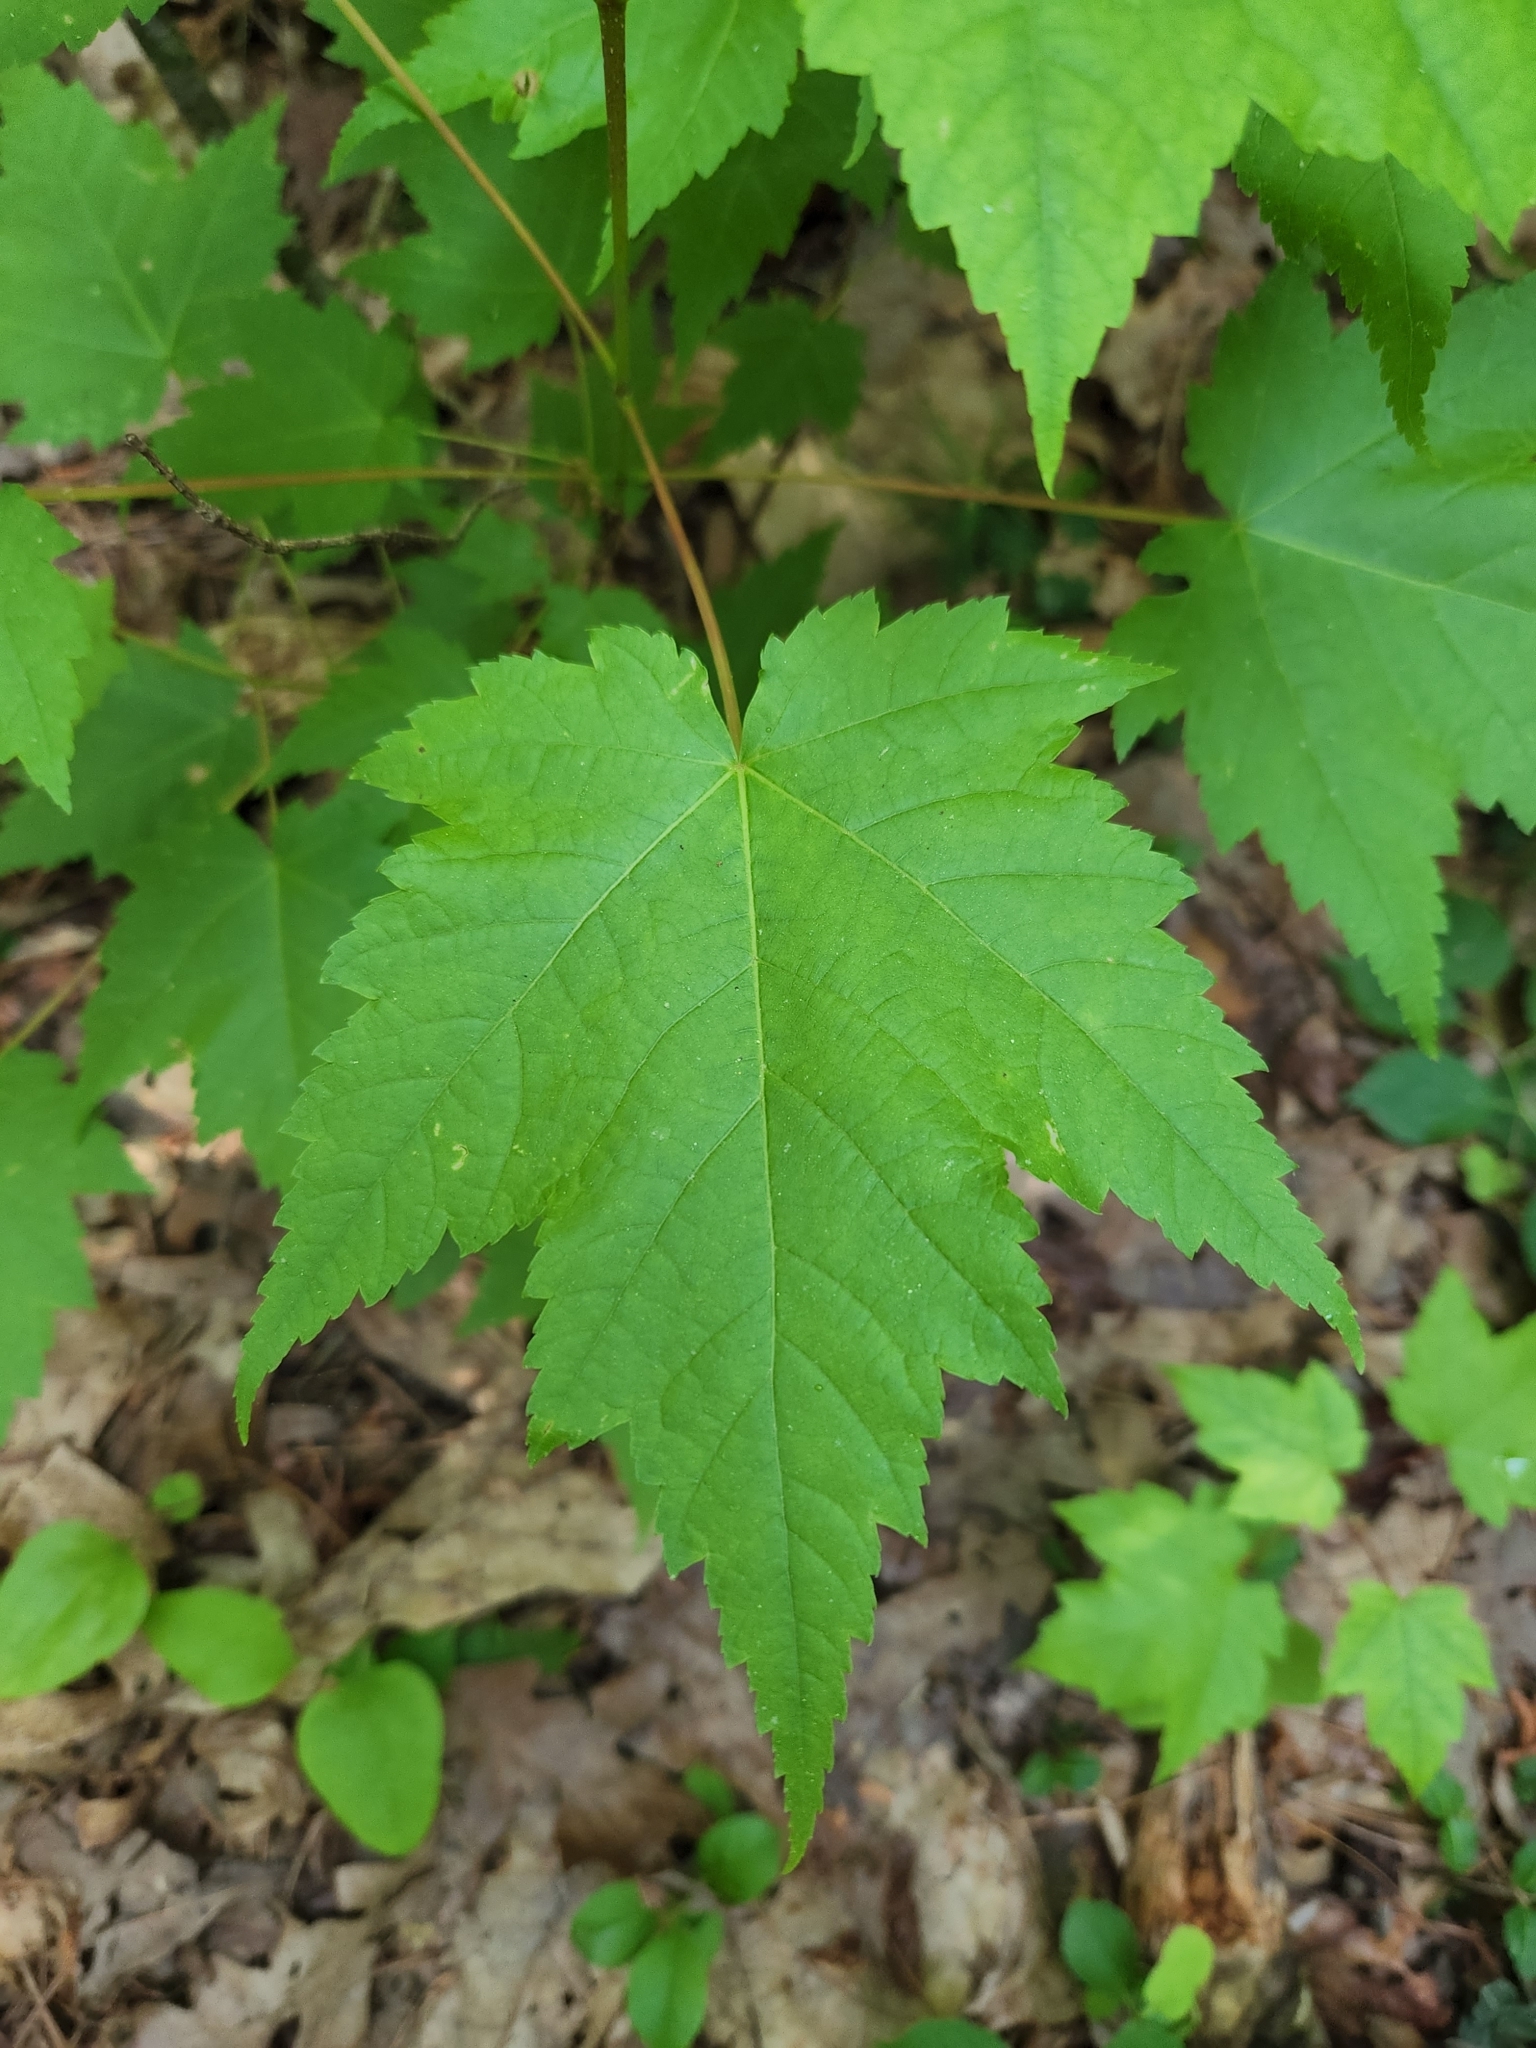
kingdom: Plantae
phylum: Tracheophyta
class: Magnoliopsida
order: Sapindales
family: Sapindaceae
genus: Acer
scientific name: Acer rubrum
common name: Red maple
